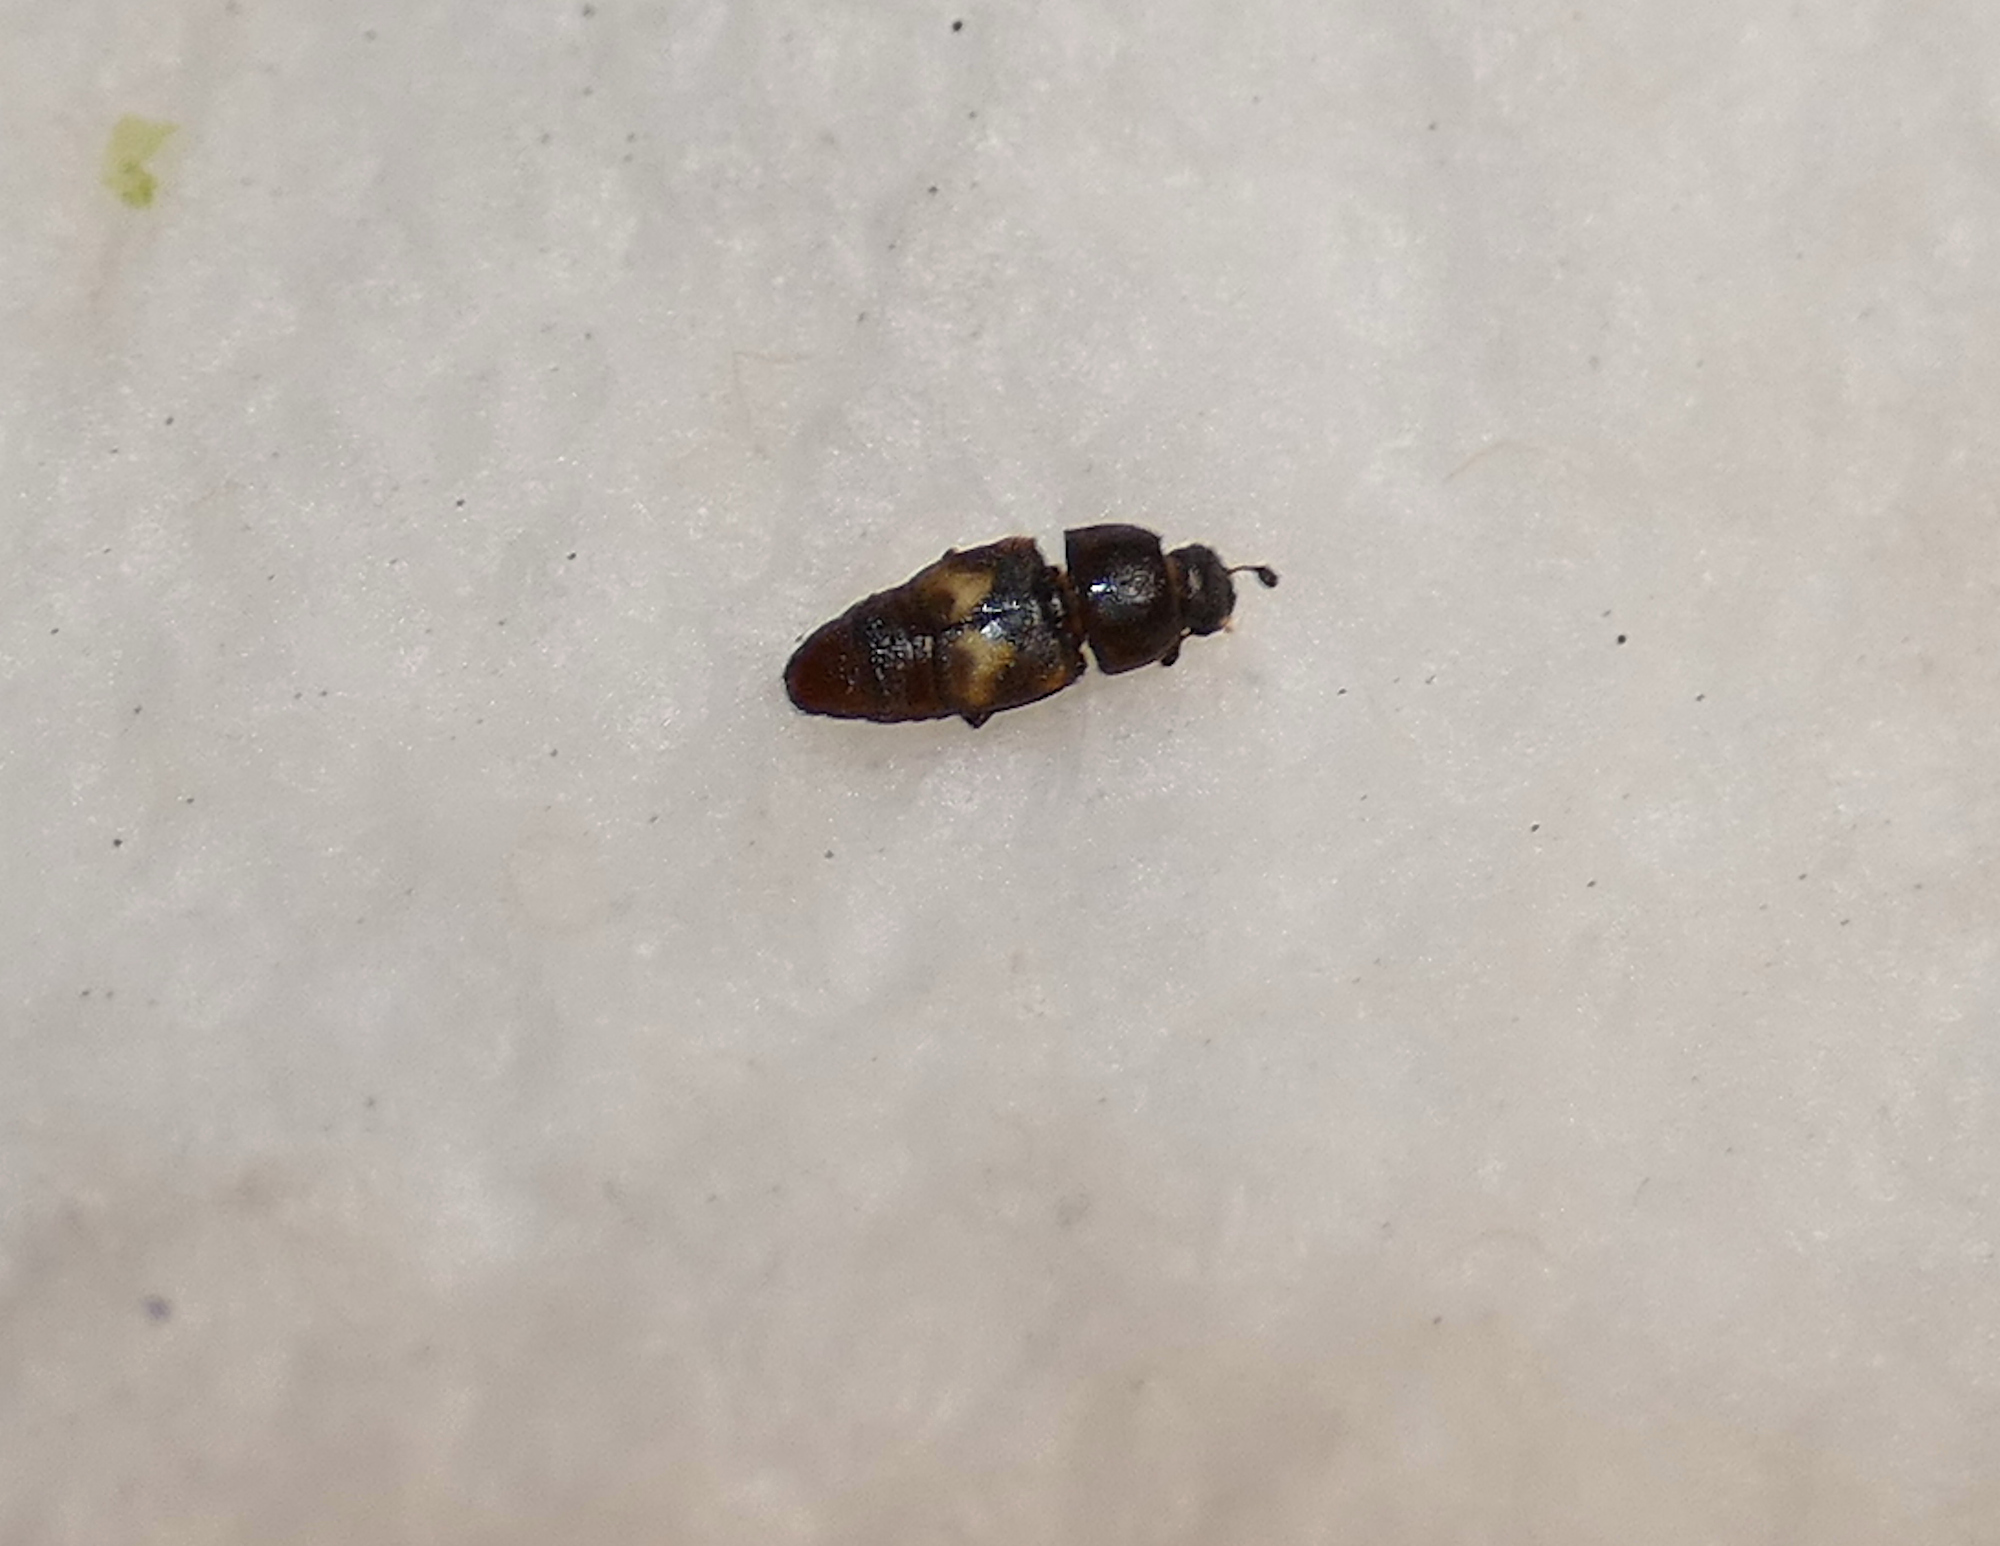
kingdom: Animalia
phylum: Arthropoda
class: Insecta
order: Coleoptera
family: Nitidulidae
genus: Carpophilus
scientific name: Carpophilus hemipterus
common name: Dried fruit beetle
